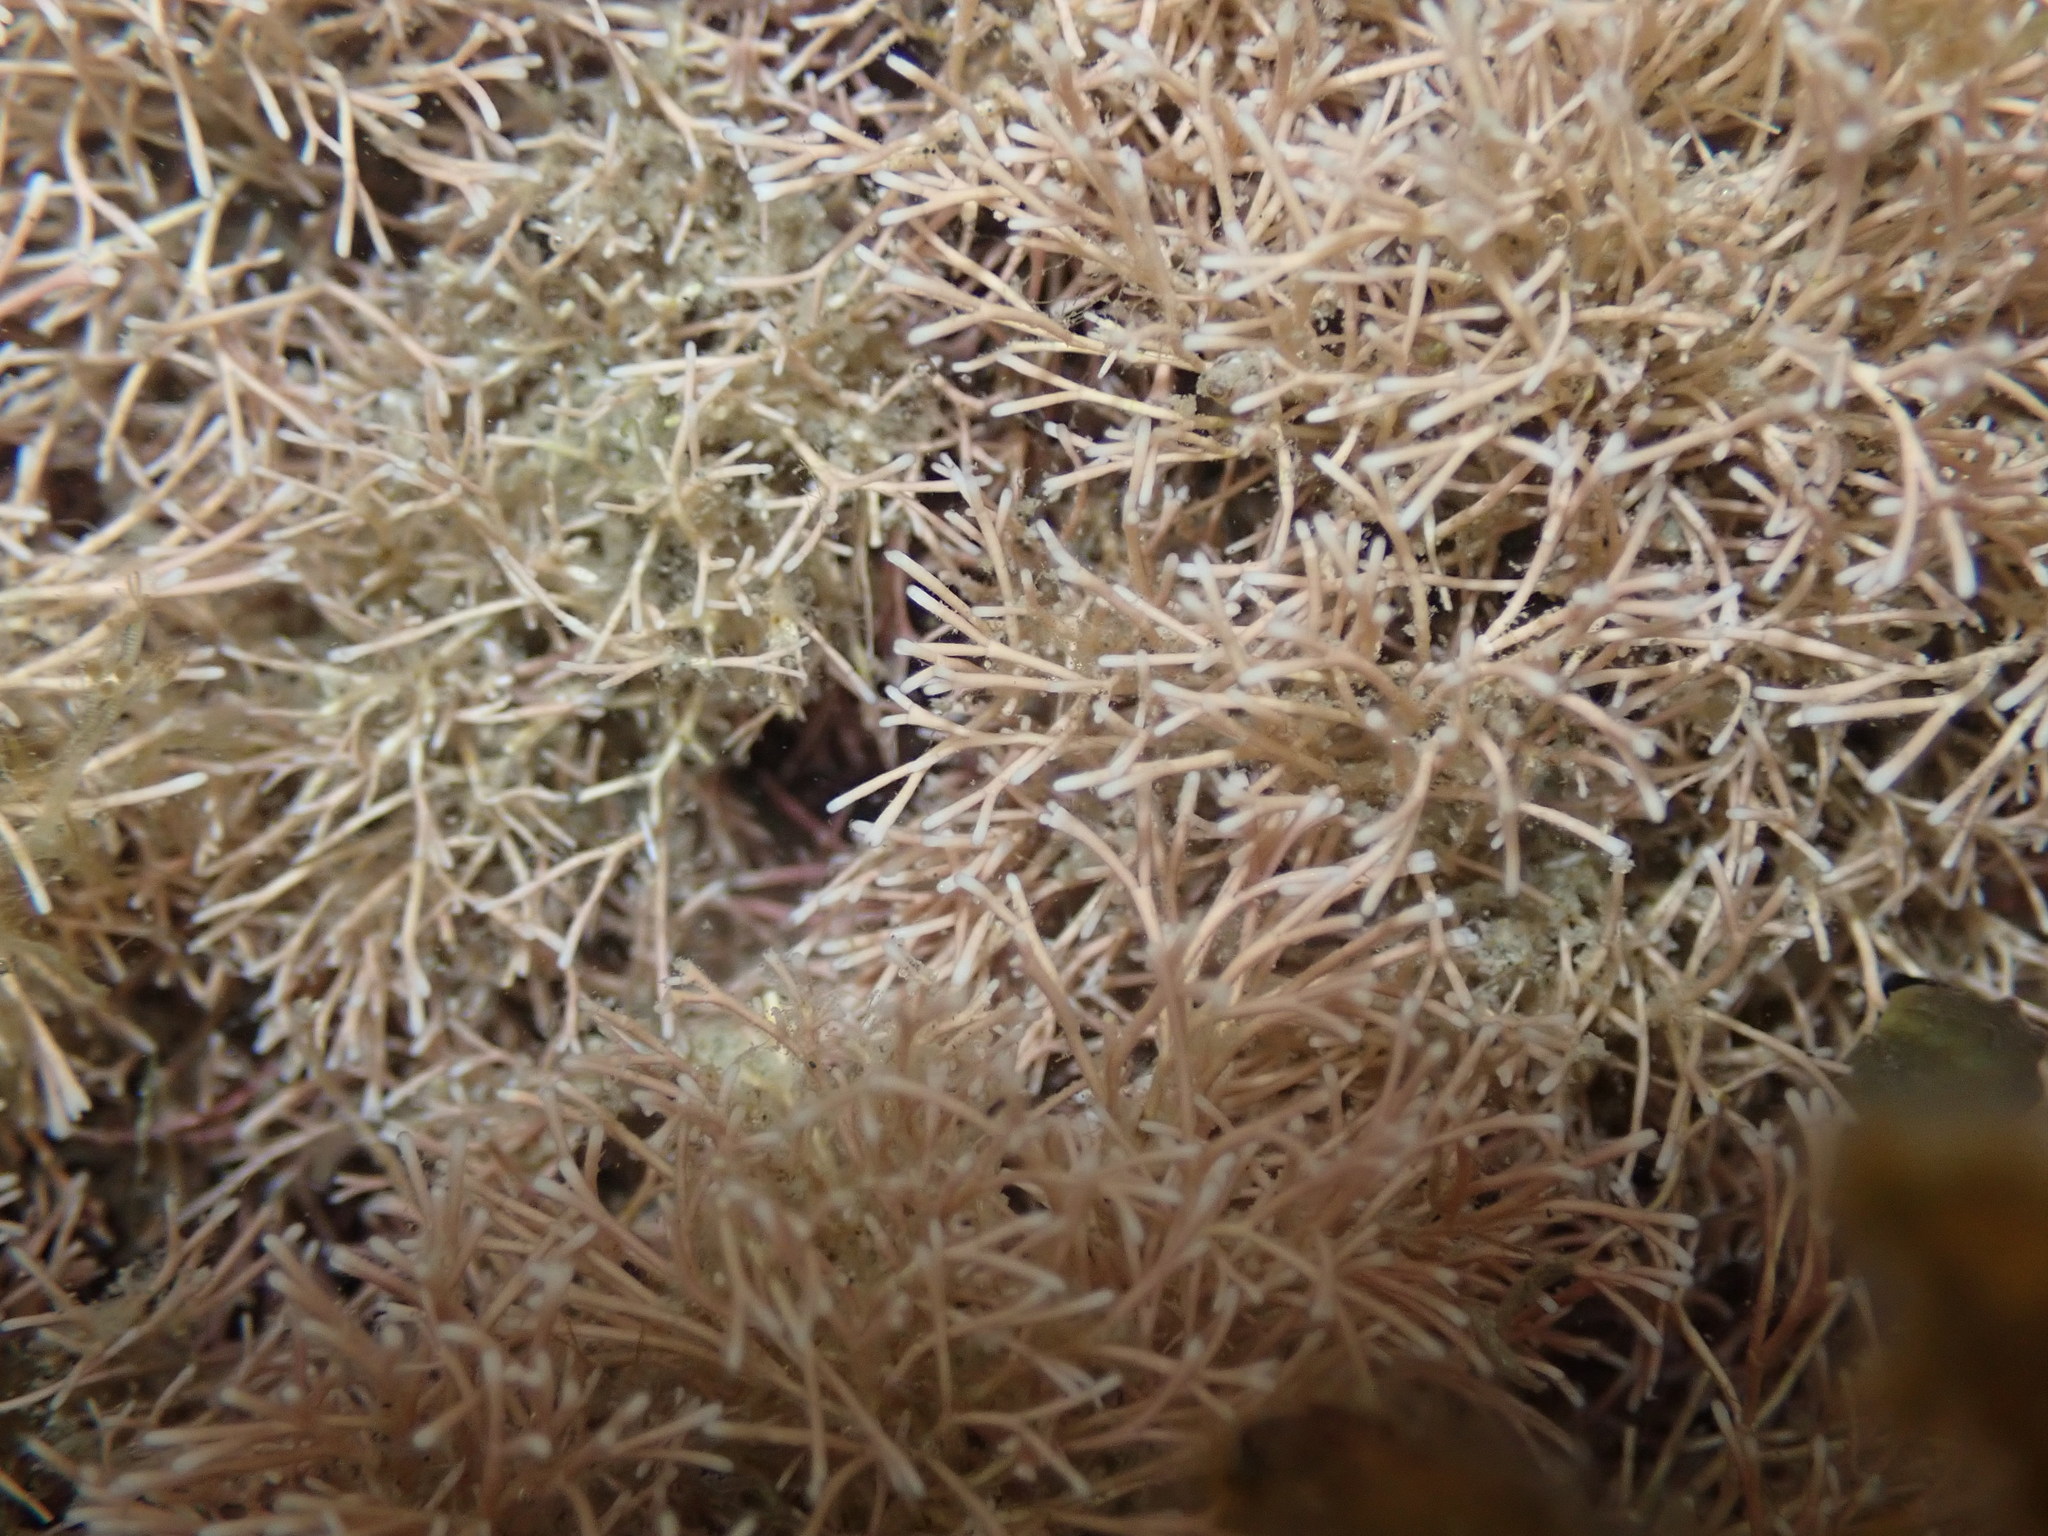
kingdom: Plantae
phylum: Rhodophyta
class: Florideophyceae
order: Corallinales
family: Corallinaceae
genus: Jania
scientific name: Jania
